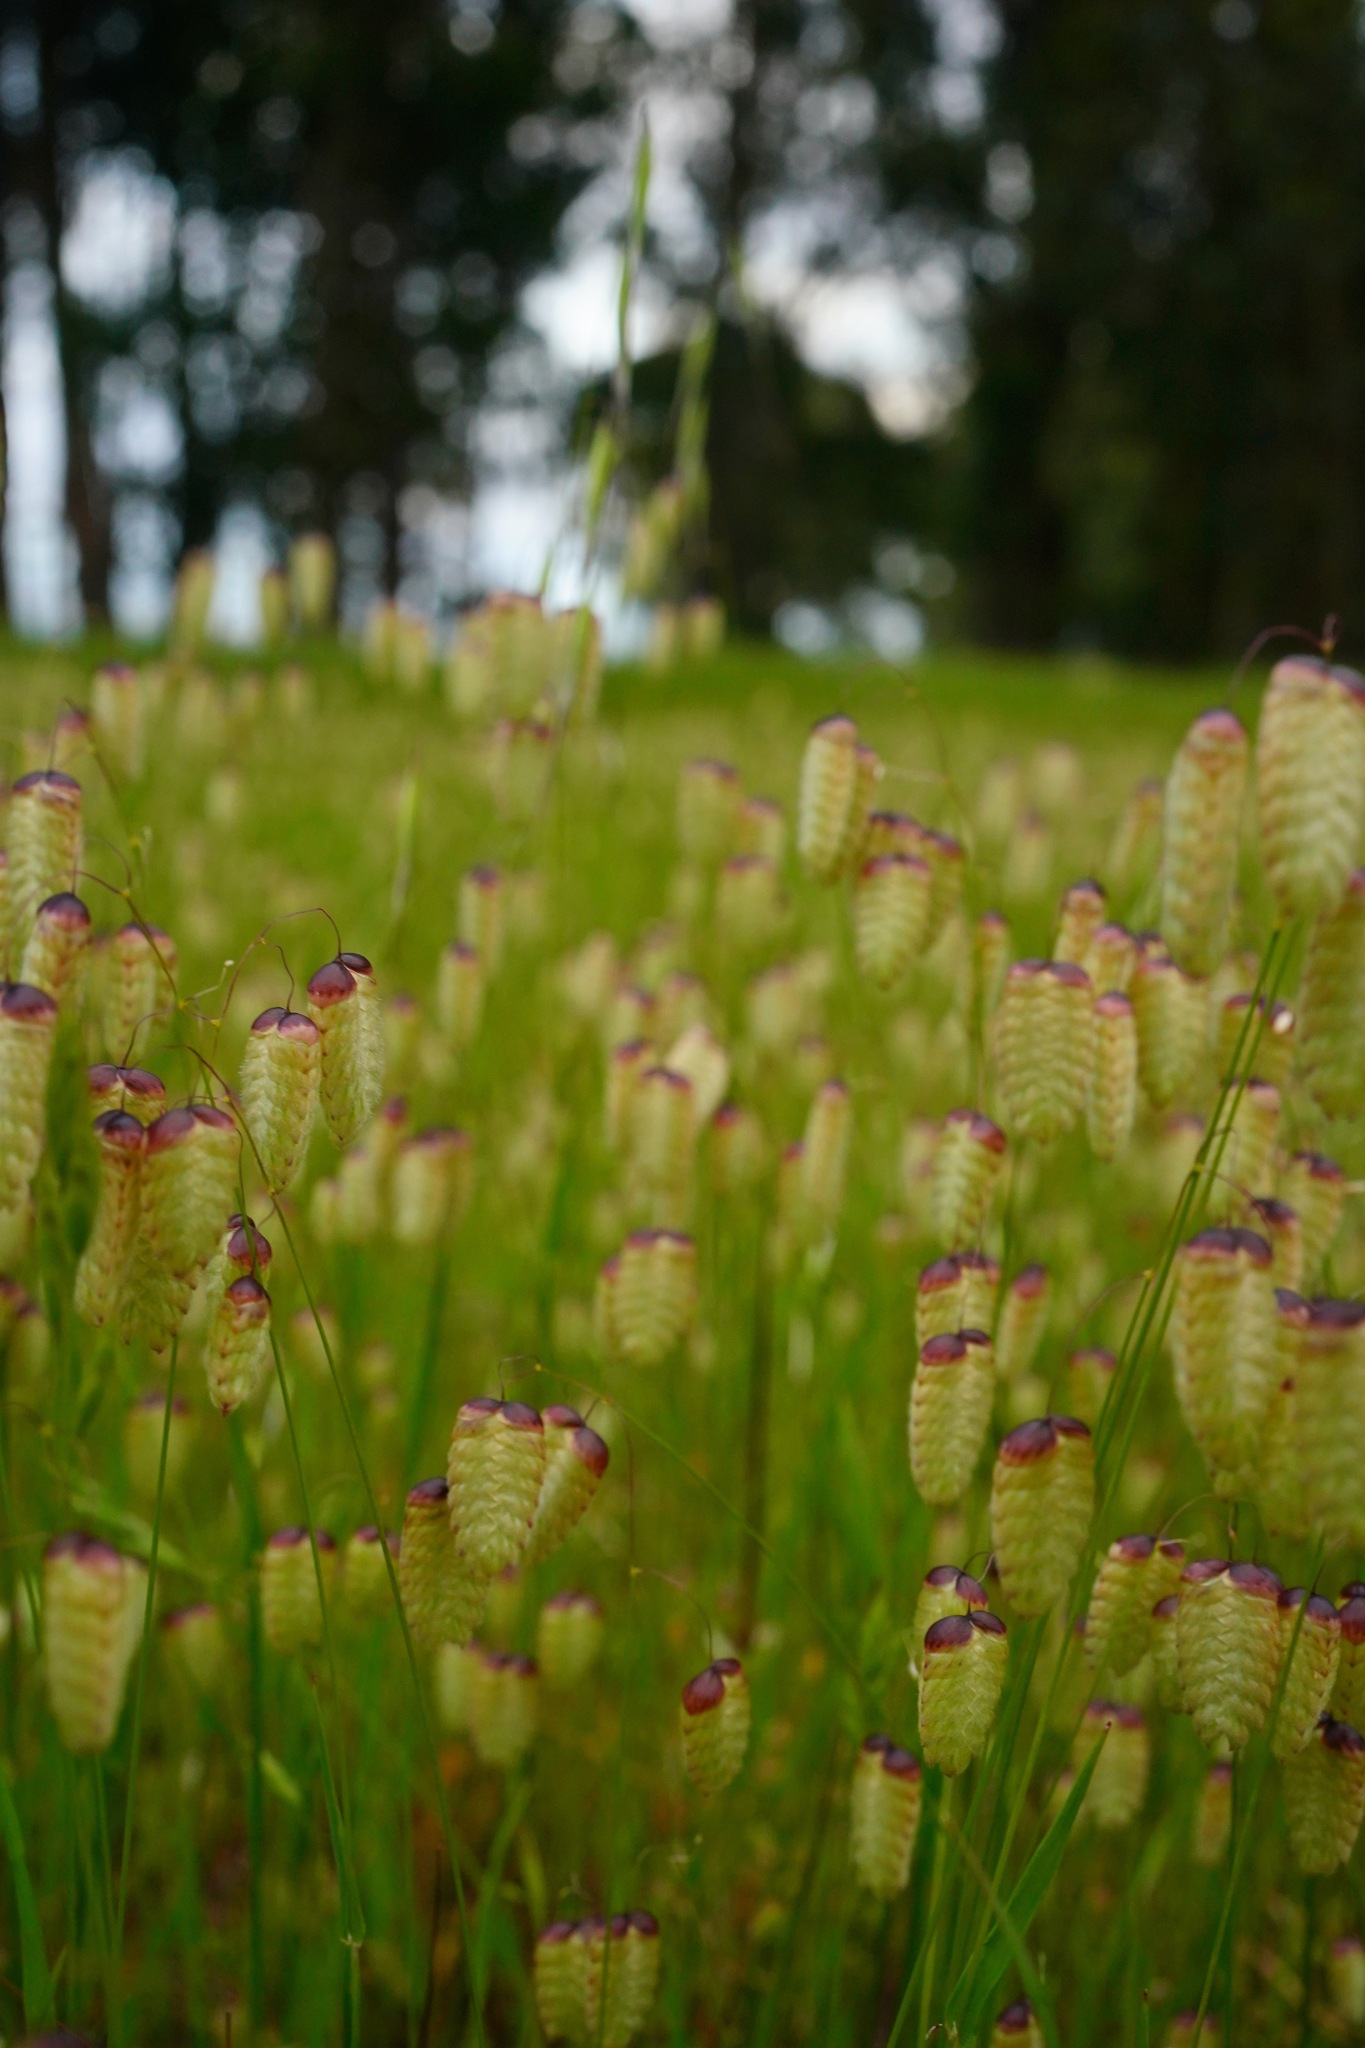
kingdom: Plantae
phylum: Tracheophyta
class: Liliopsida
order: Poales
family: Poaceae
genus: Briza
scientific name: Briza maxima
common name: Big quakinggrass
